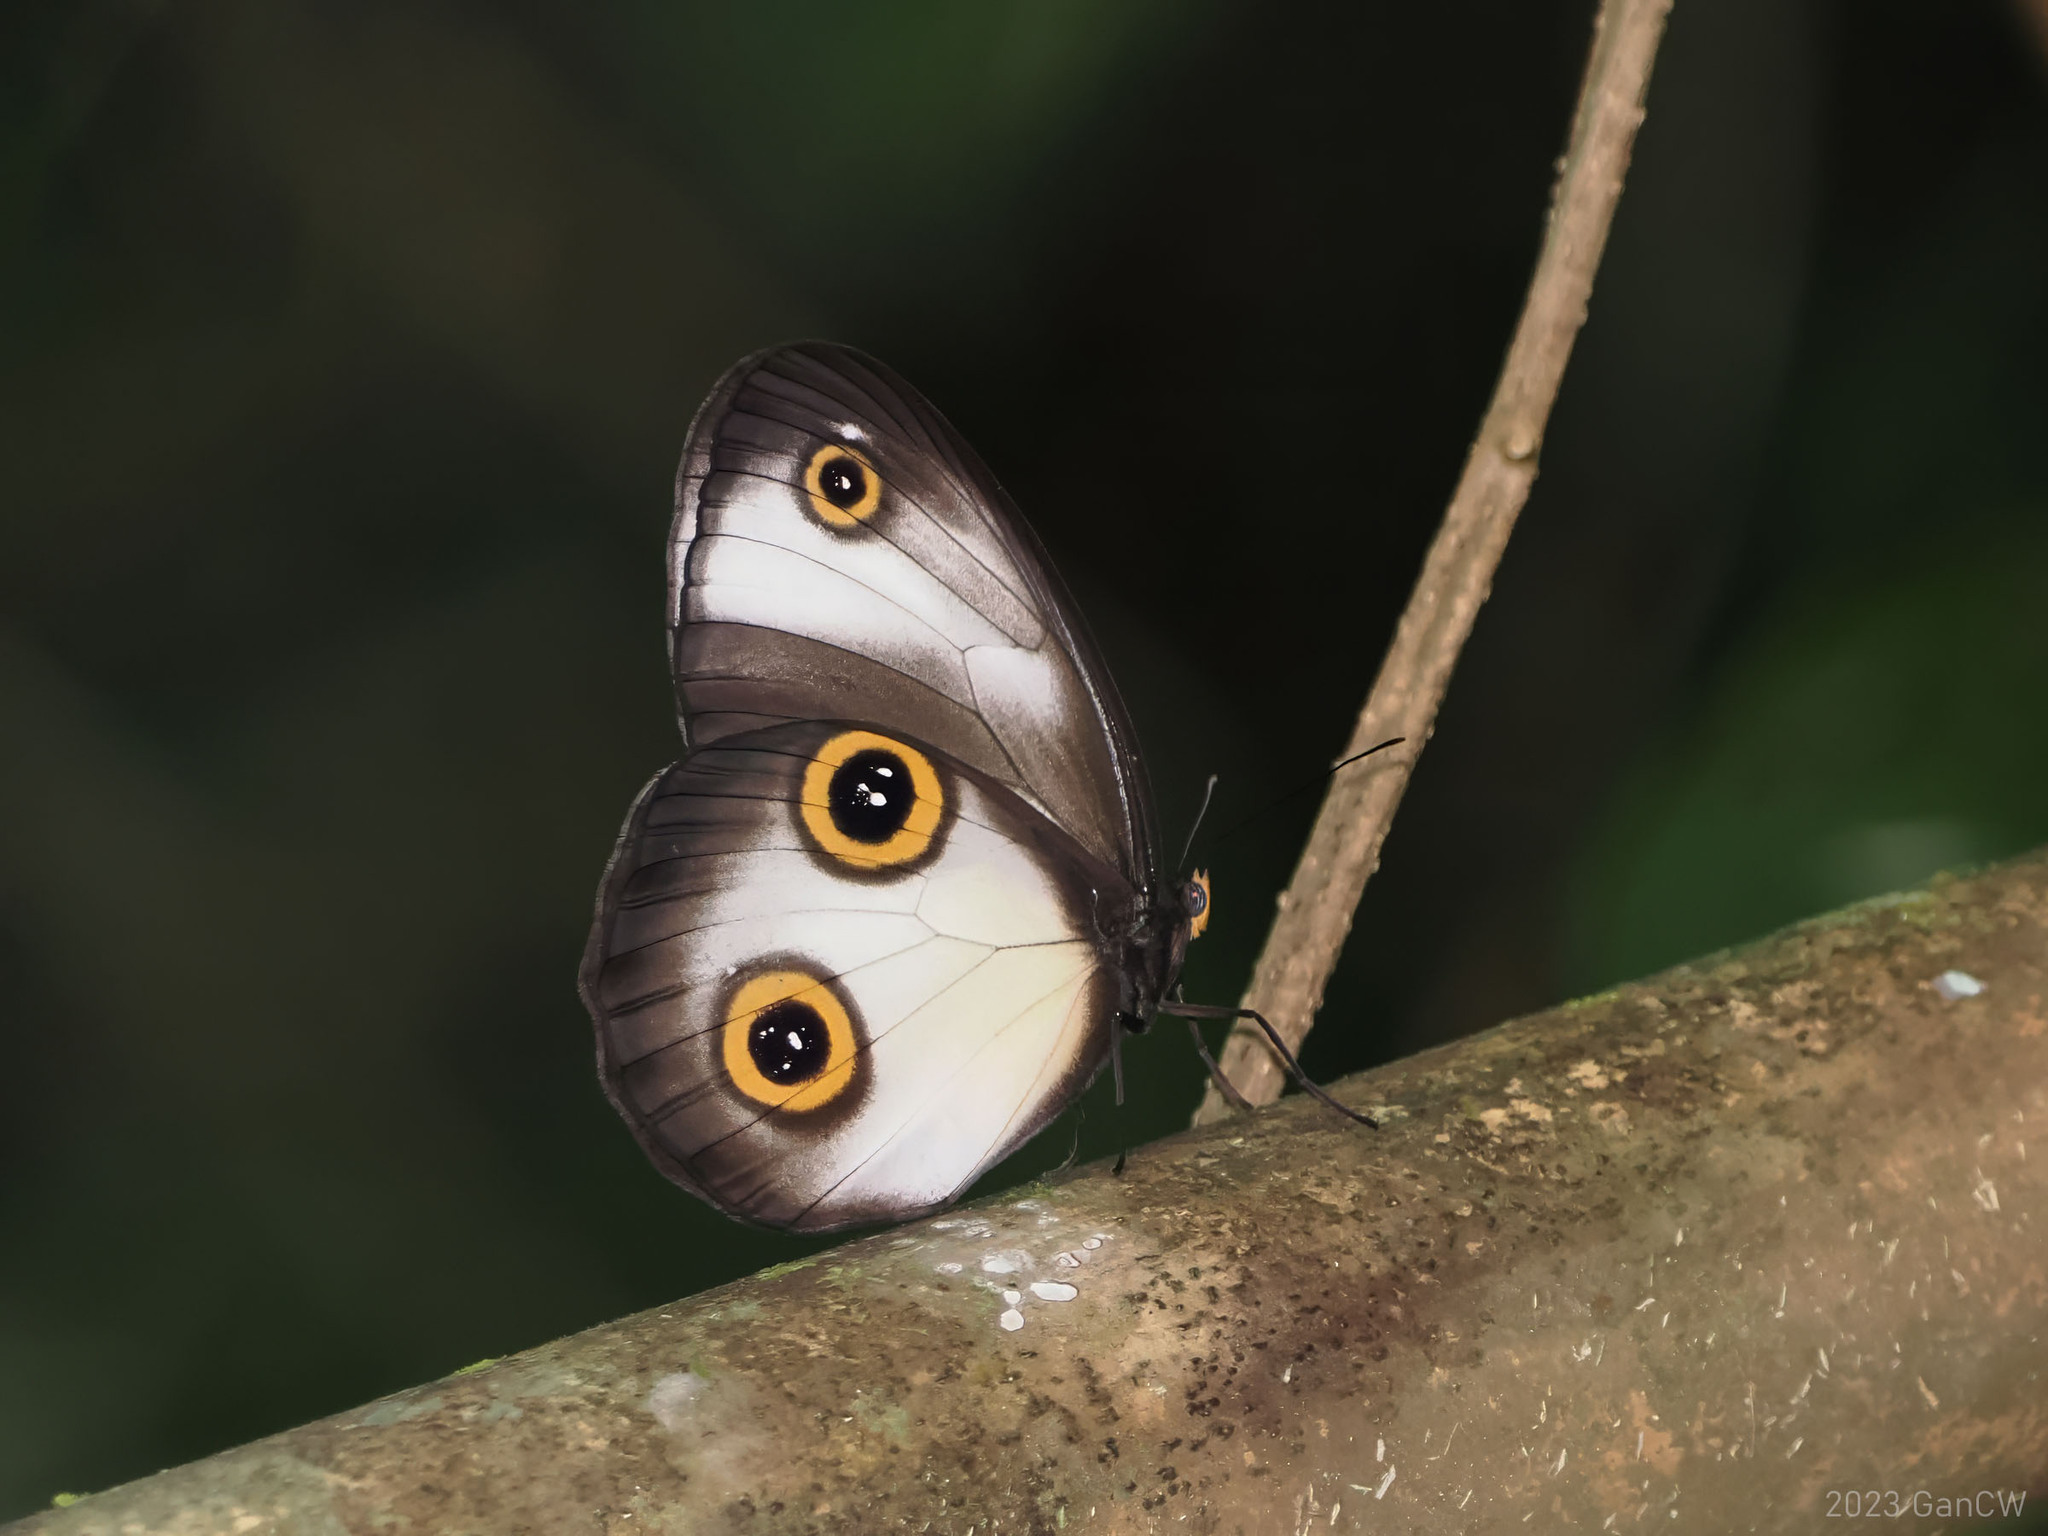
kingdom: Animalia
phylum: Arthropoda
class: Insecta
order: Lepidoptera
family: Nymphalidae
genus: Hyantis
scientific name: Hyantis hodeva
